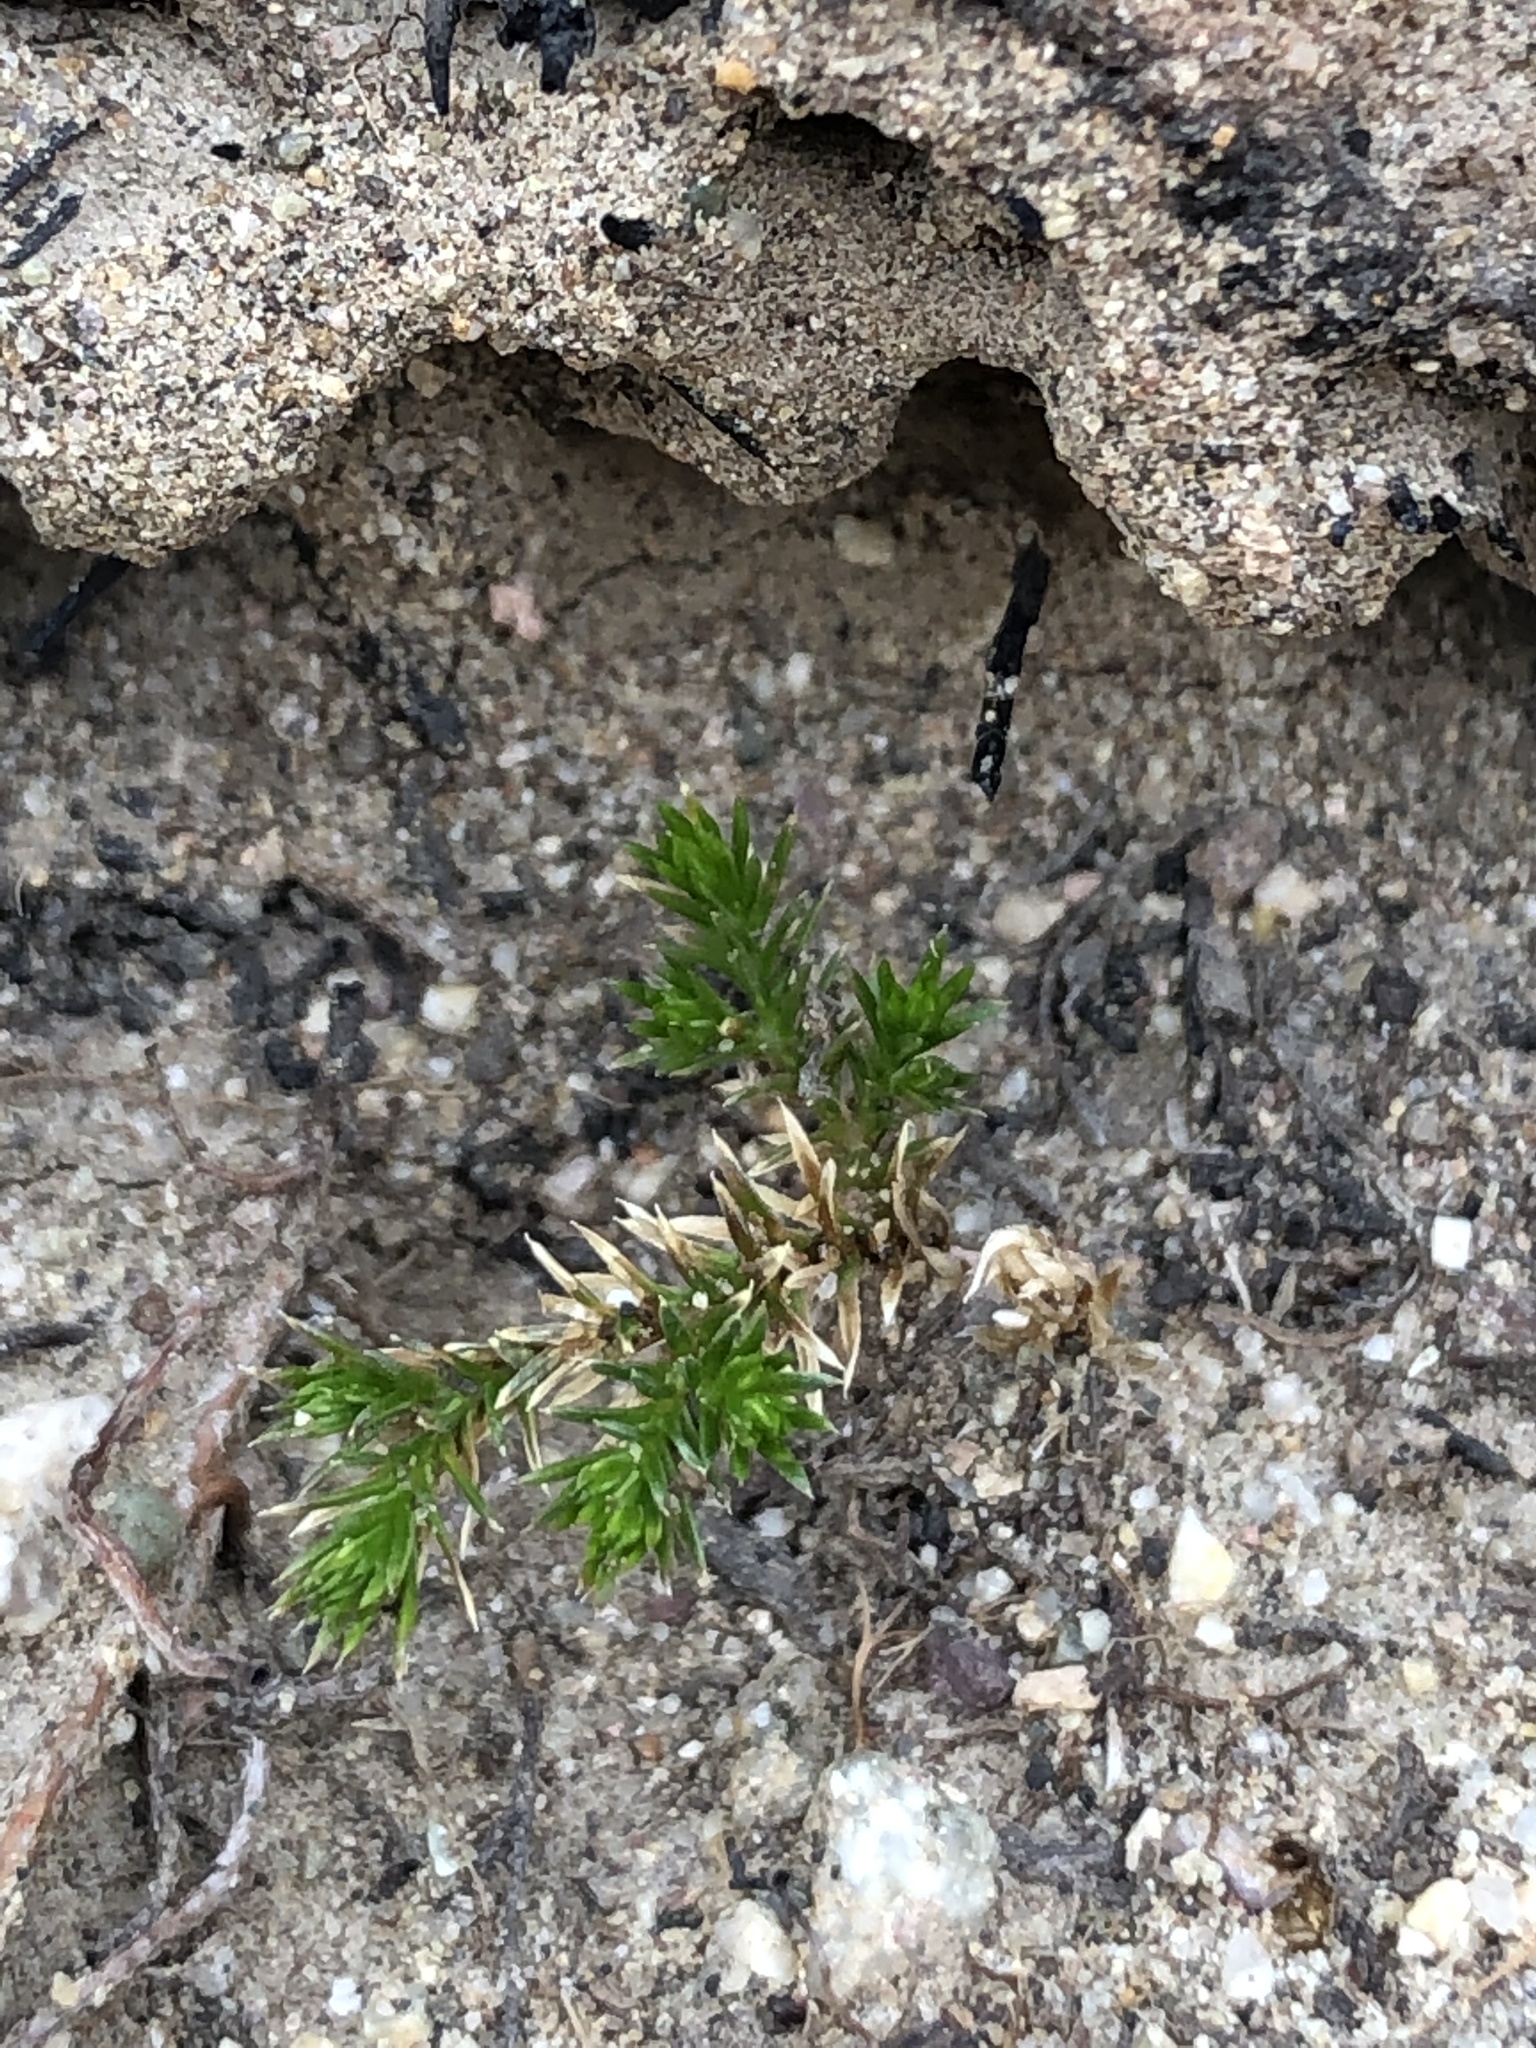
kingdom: Plantae
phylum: Tracheophyta
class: Lycopodiopsida
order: Selaginellales
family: Selaginellaceae
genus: Selaginella
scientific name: Selaginella bigelovii
